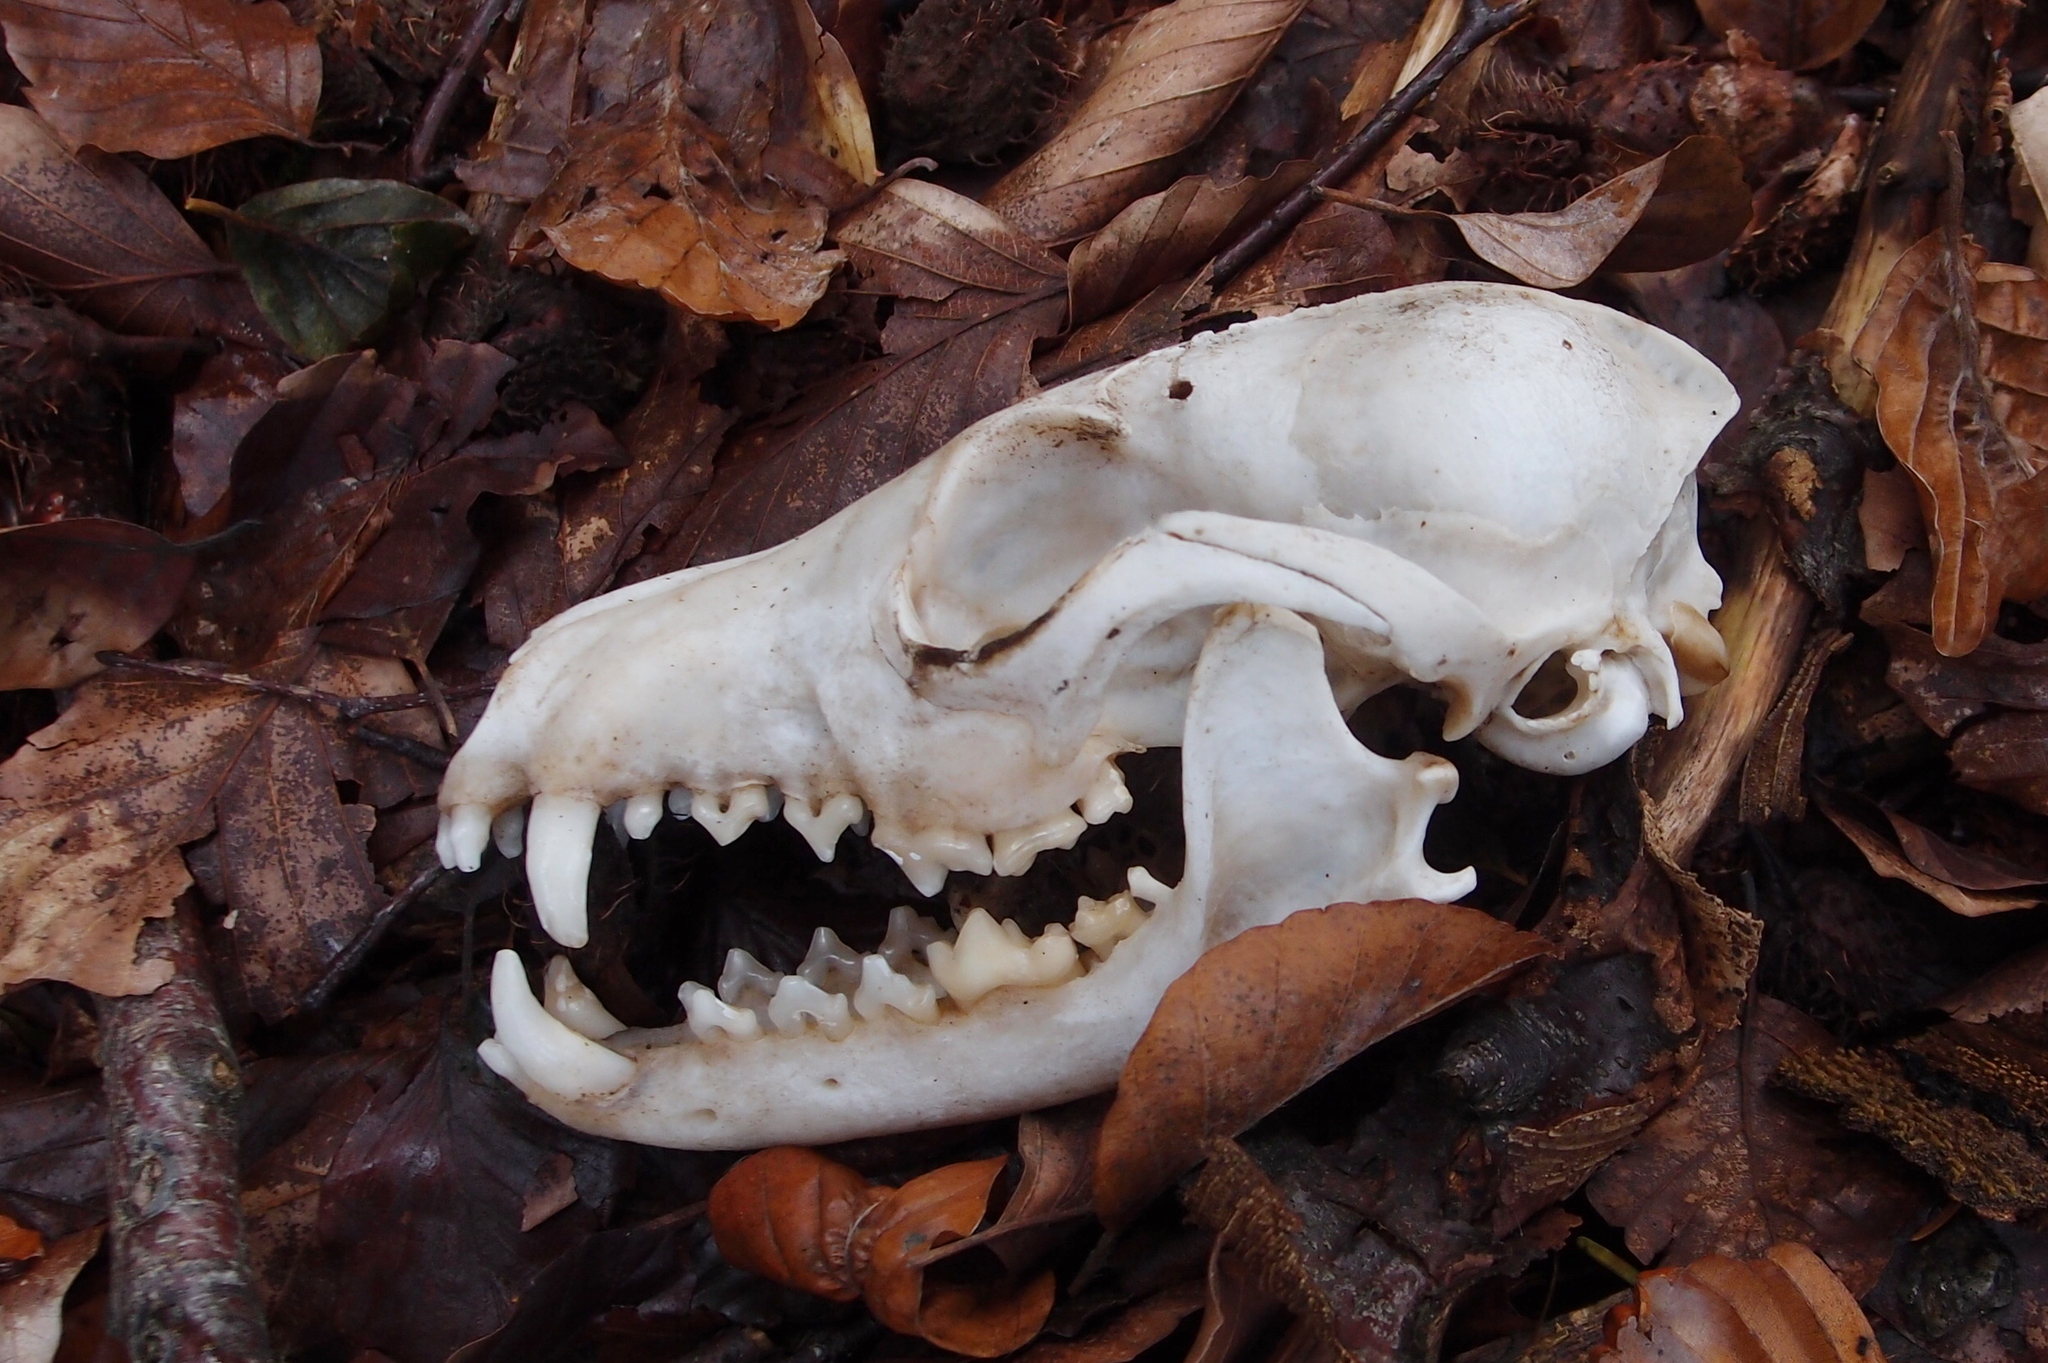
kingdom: Animalia
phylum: Chordata
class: Mammalia
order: Carnivora
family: Canidae
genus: Vulpes
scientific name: Vulpes vulpes
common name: Red fox
